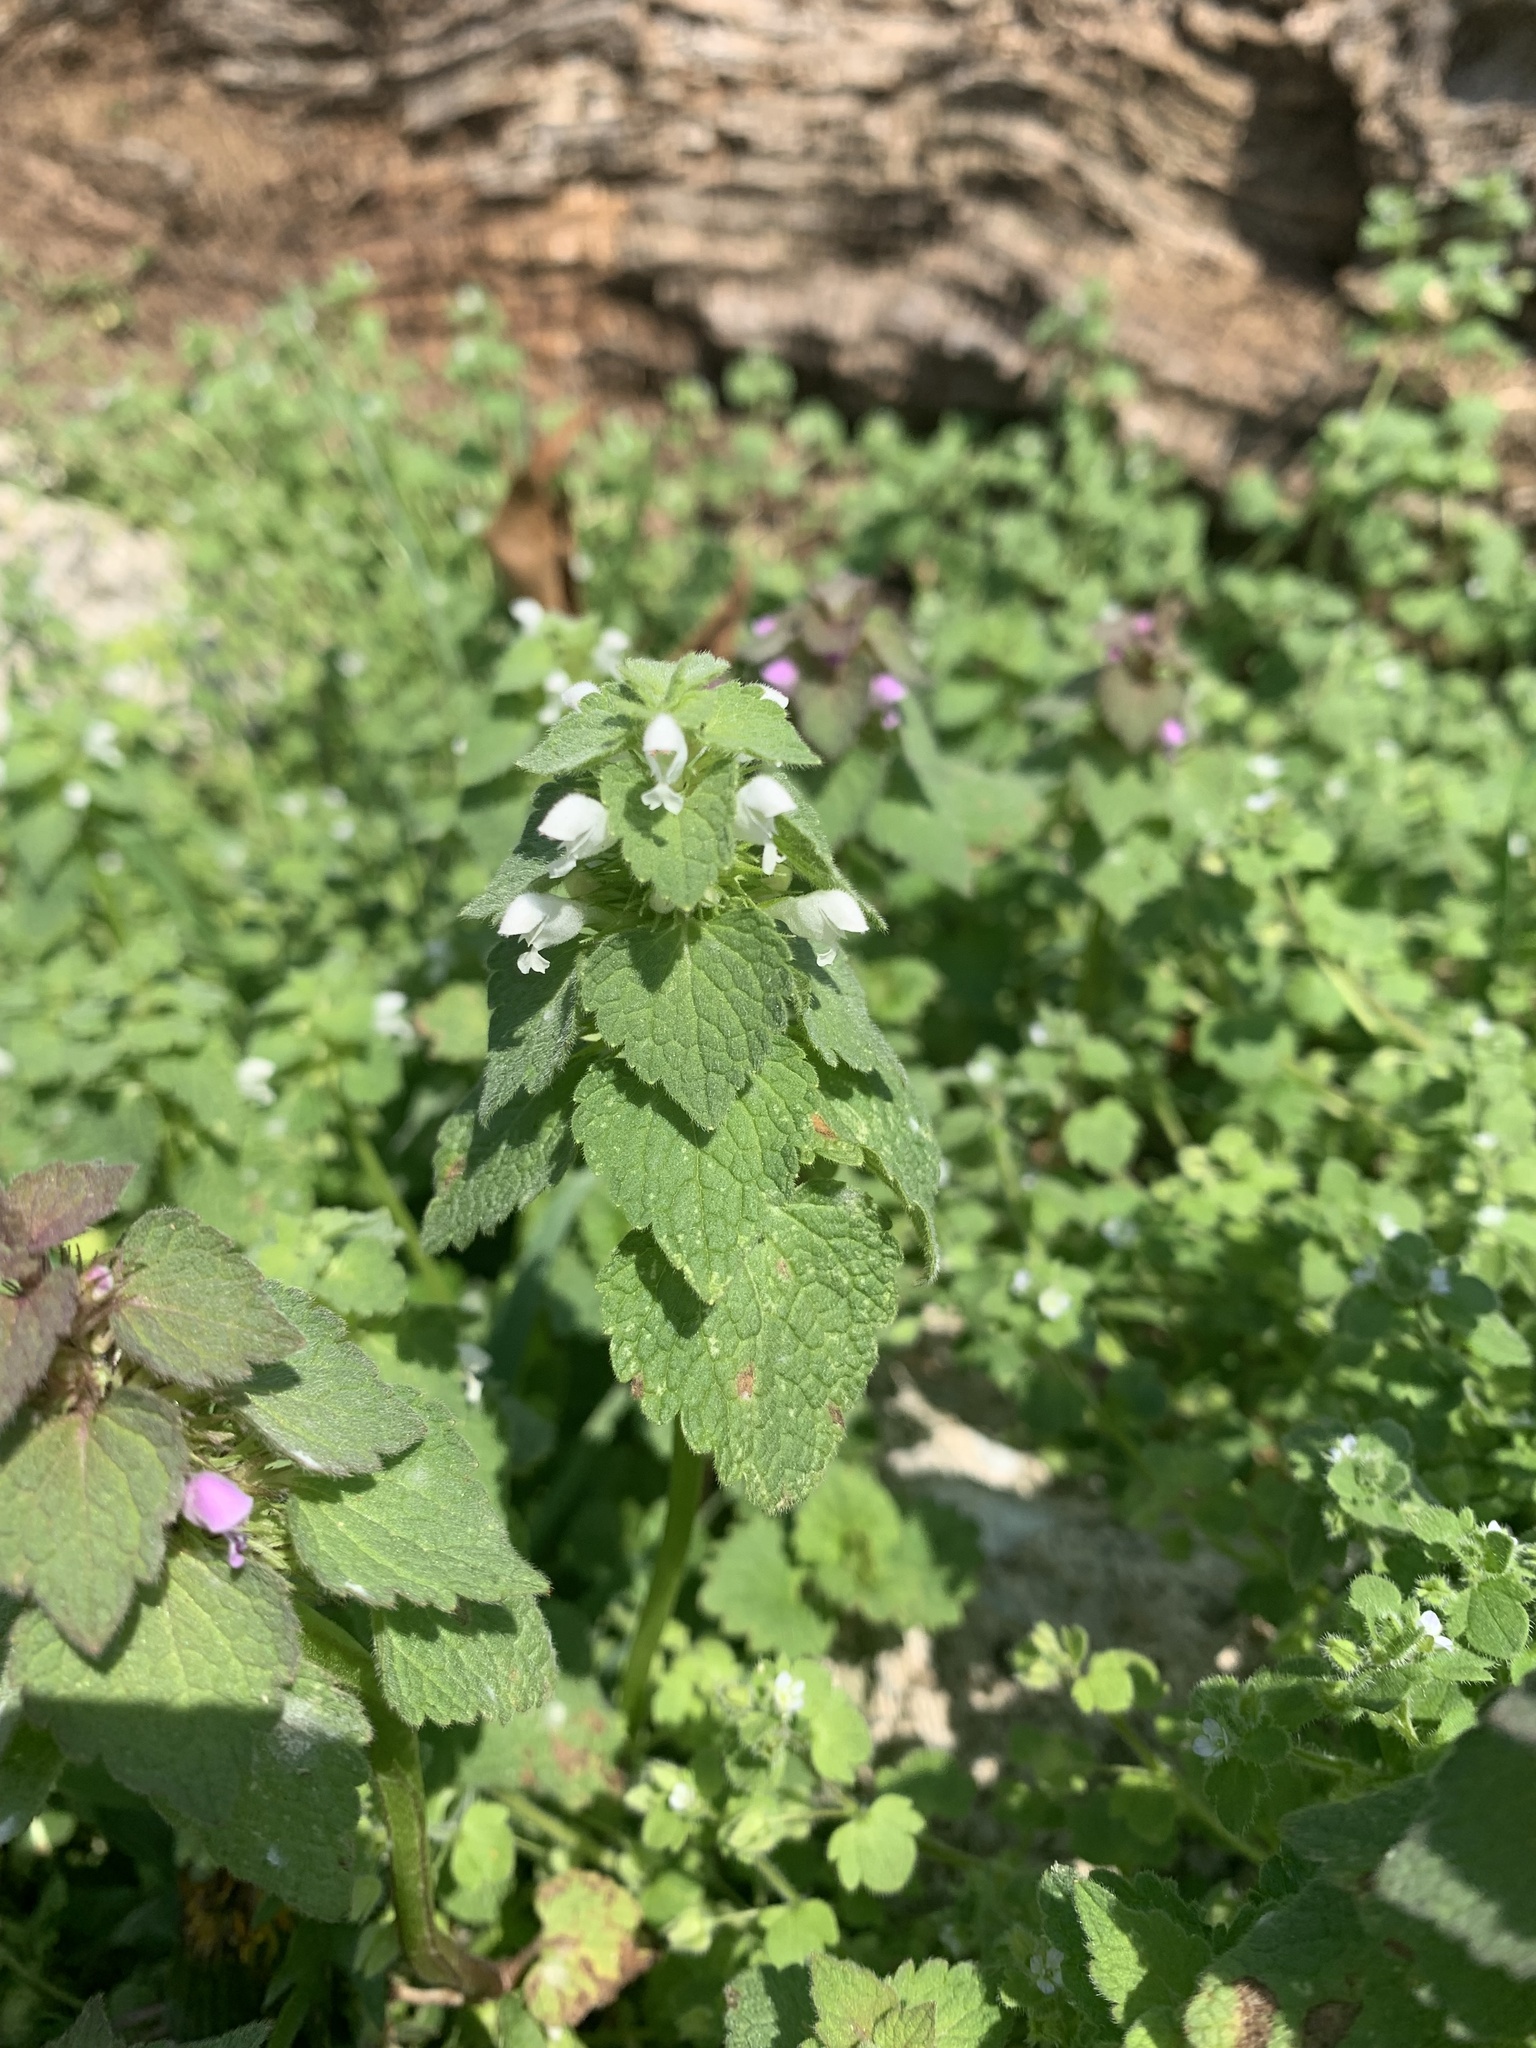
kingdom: Plantae
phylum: Tracheophyta
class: Magnoliopsida
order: Lamiales
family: Lamiaceae
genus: Lamium
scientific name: Lamium purpureum
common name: Red dead-nettle
